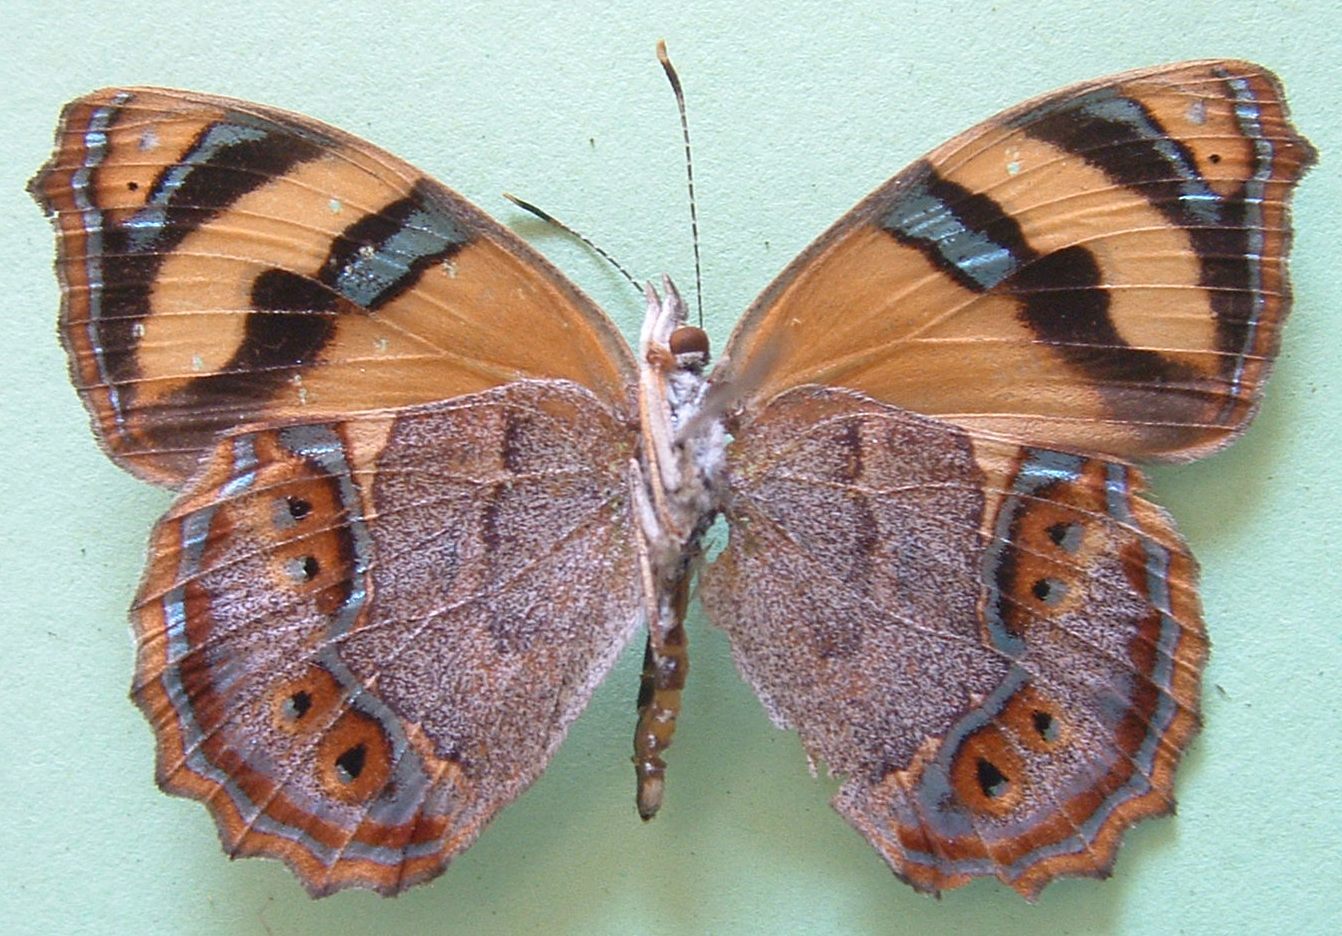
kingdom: Animalia
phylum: Arthropoda
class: Insecta
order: Lepidoptera
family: Nymphalidae
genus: Bolboneura
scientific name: Bolboneura sylphis
